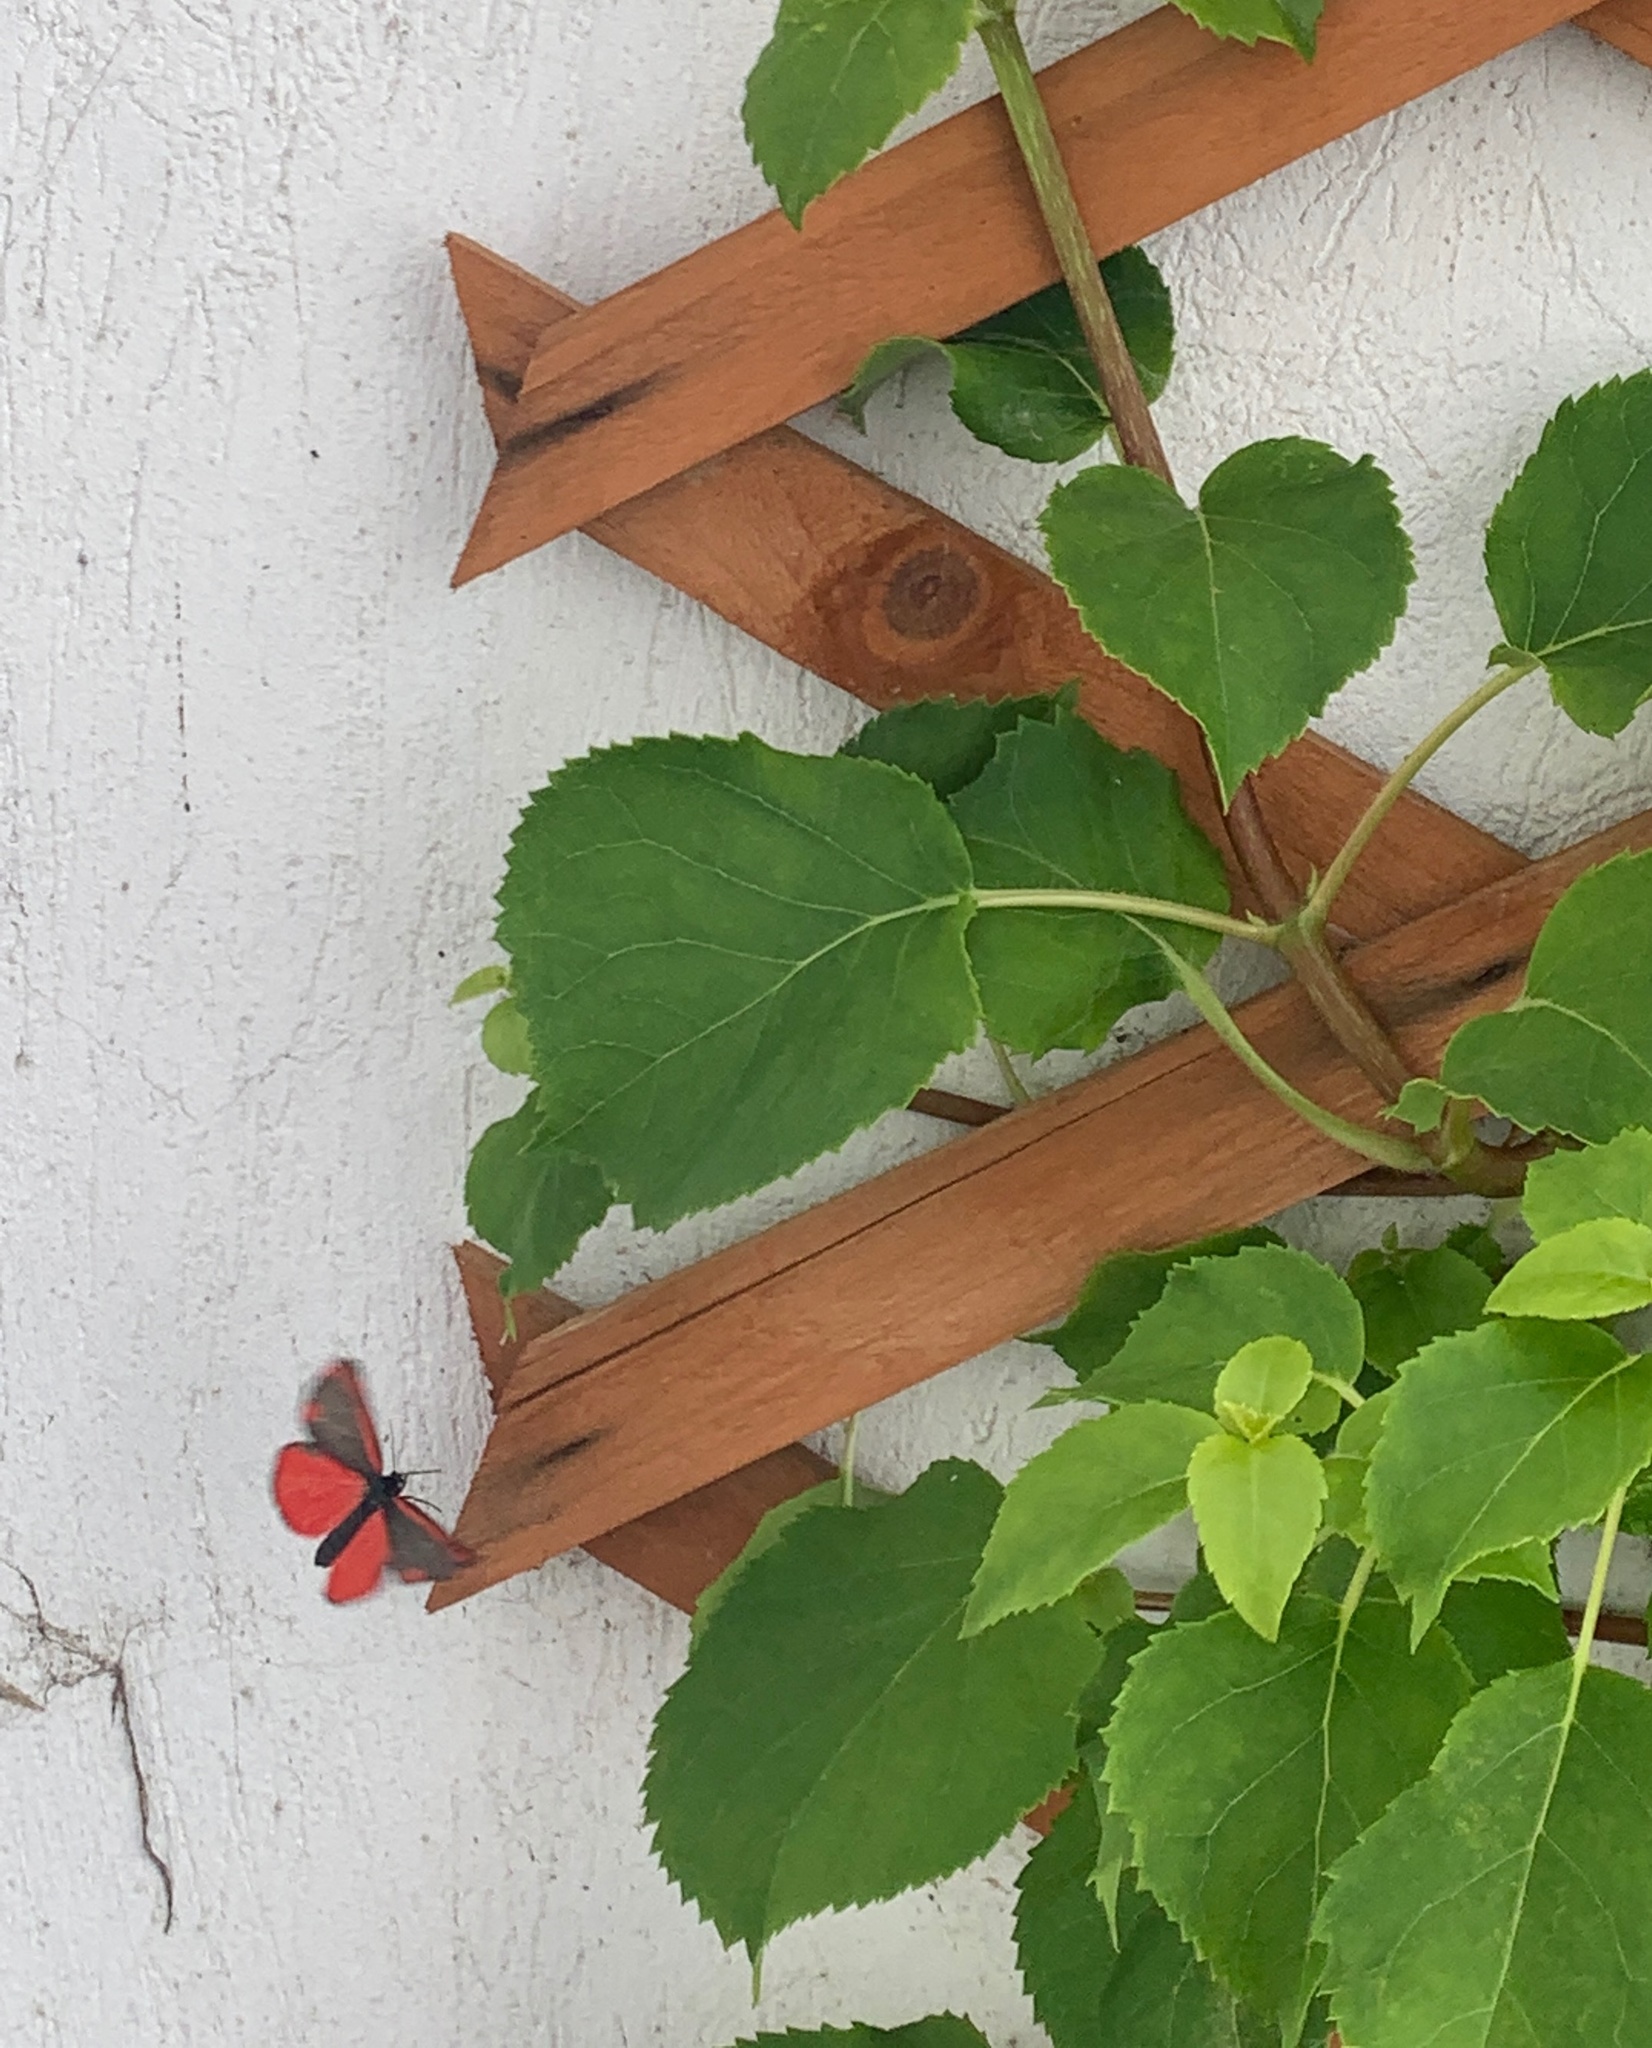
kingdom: Animalia
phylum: Arthropoda
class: Insecta
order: Lepidoptera
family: Erebidae
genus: Tyria
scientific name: Tyria jacobaeae
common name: Cinnabar
